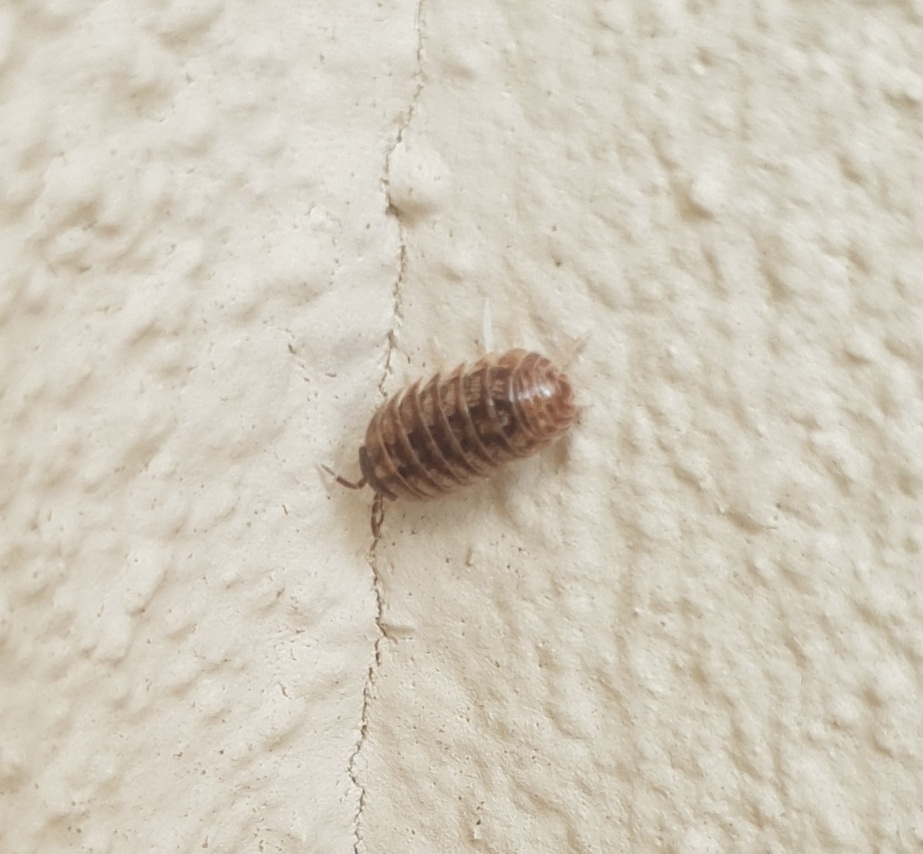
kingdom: Animalia
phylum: Arthropoda
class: Malacostraca
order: Isopoda
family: Armadillidiidae
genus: Armadillidium
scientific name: Armadillidium vulgare
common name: Common pill woodlouse
